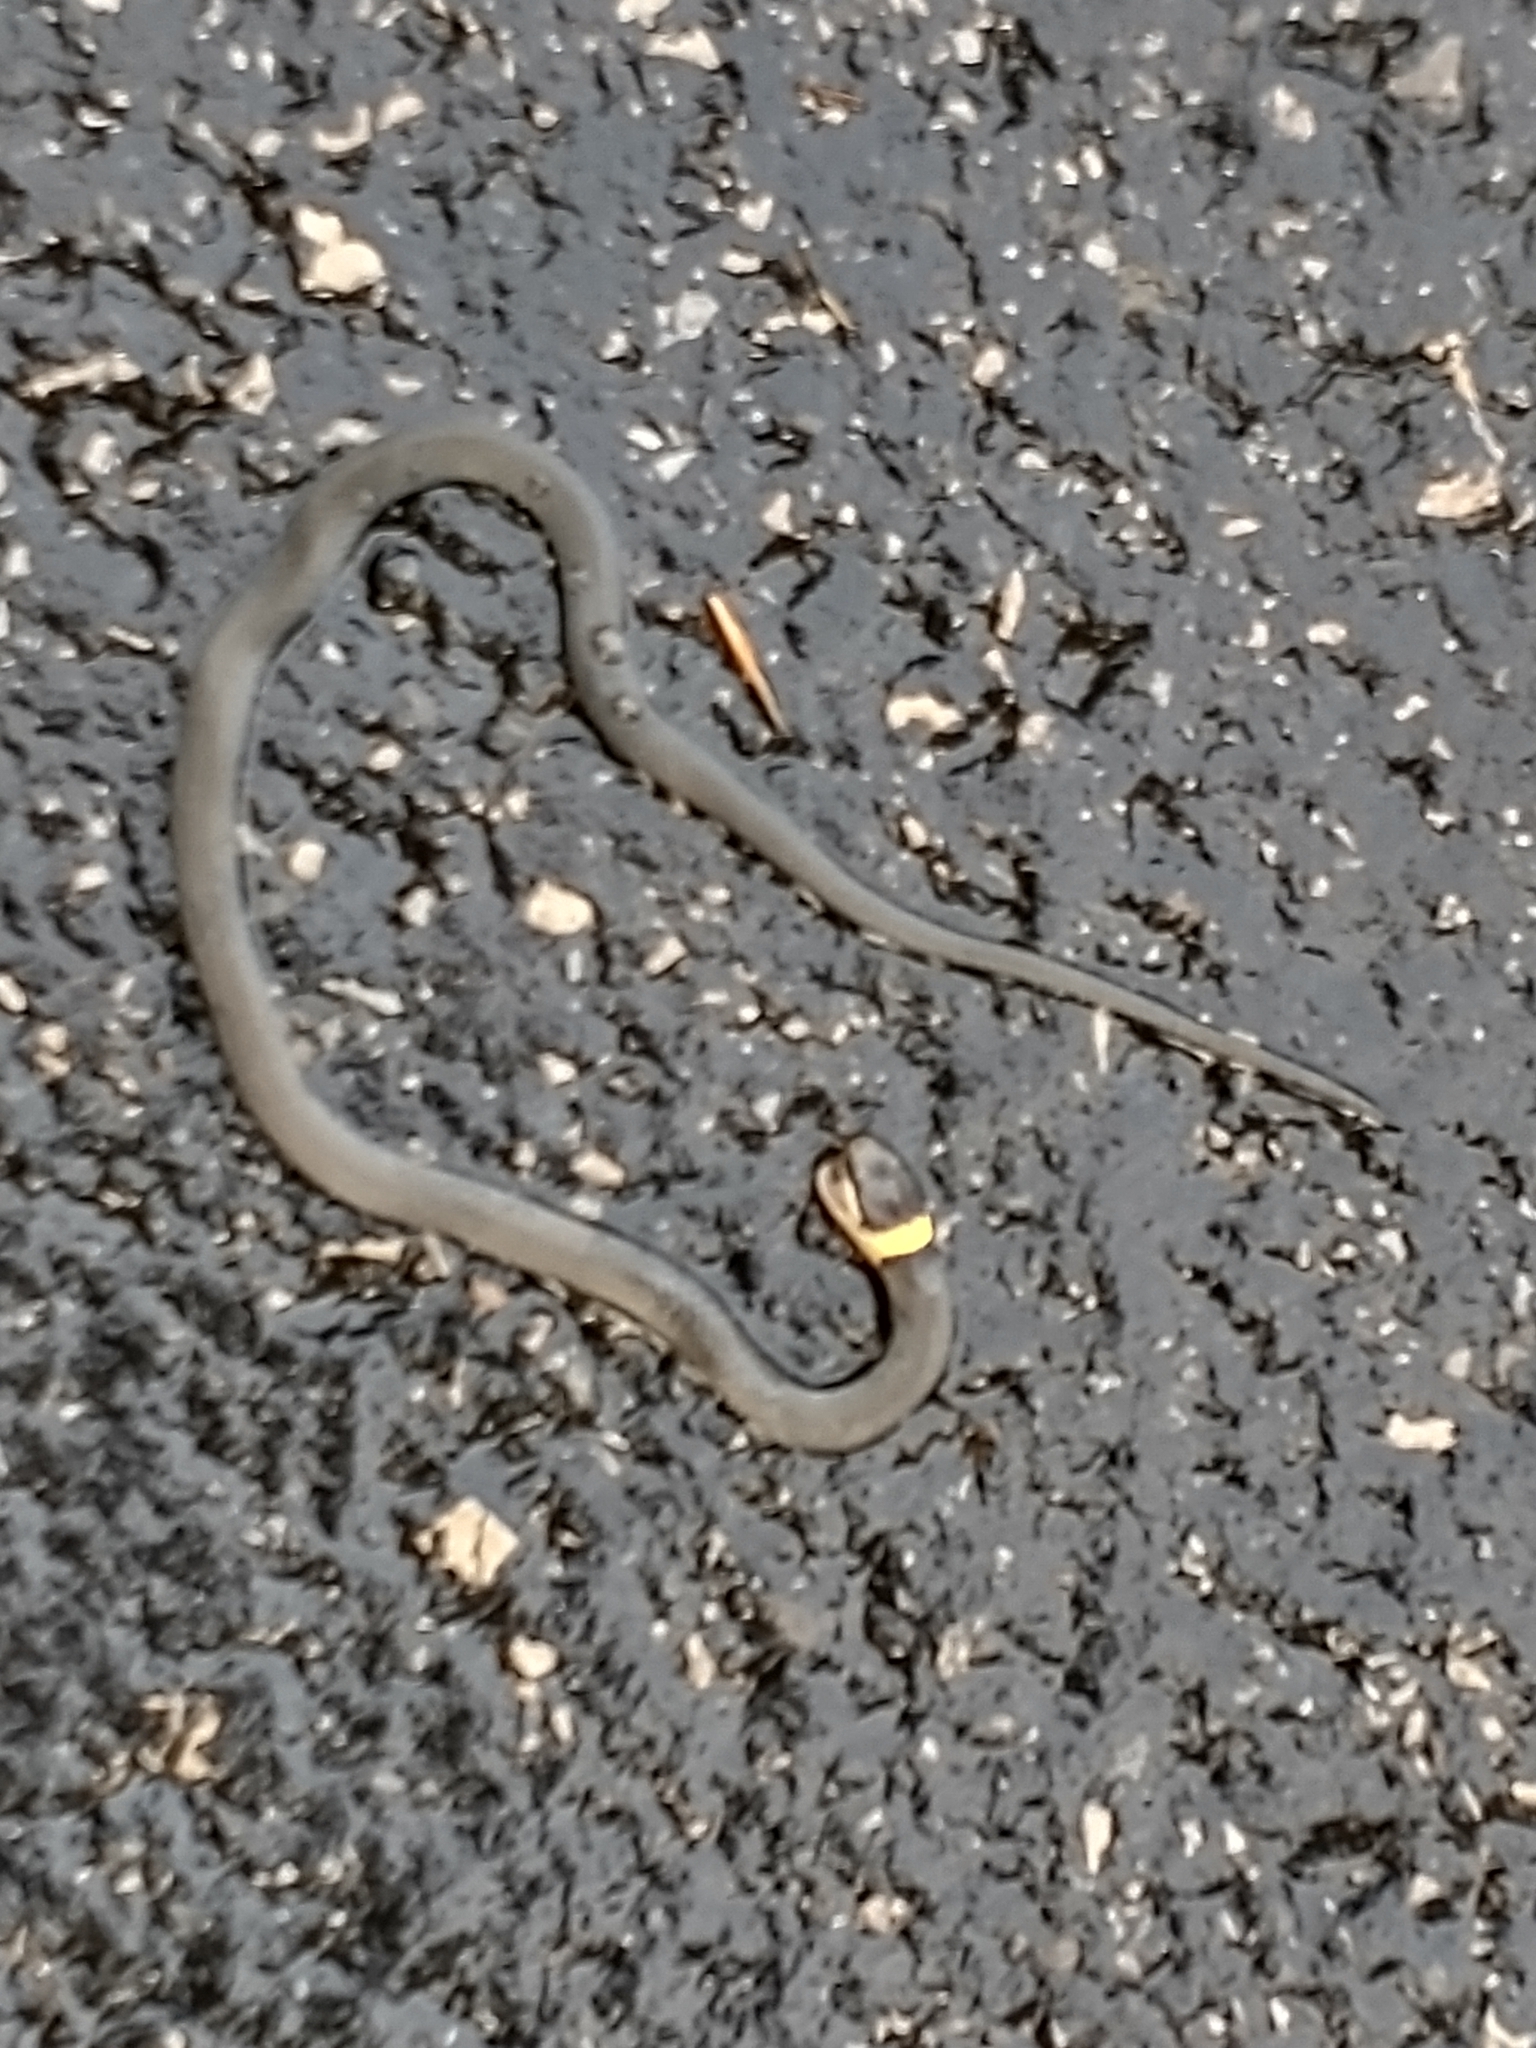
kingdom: Animalia
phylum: Chordata
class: Squamata
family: Colubridae
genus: Diadophis
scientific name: Diadophis punctatus
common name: Ringneck snake
